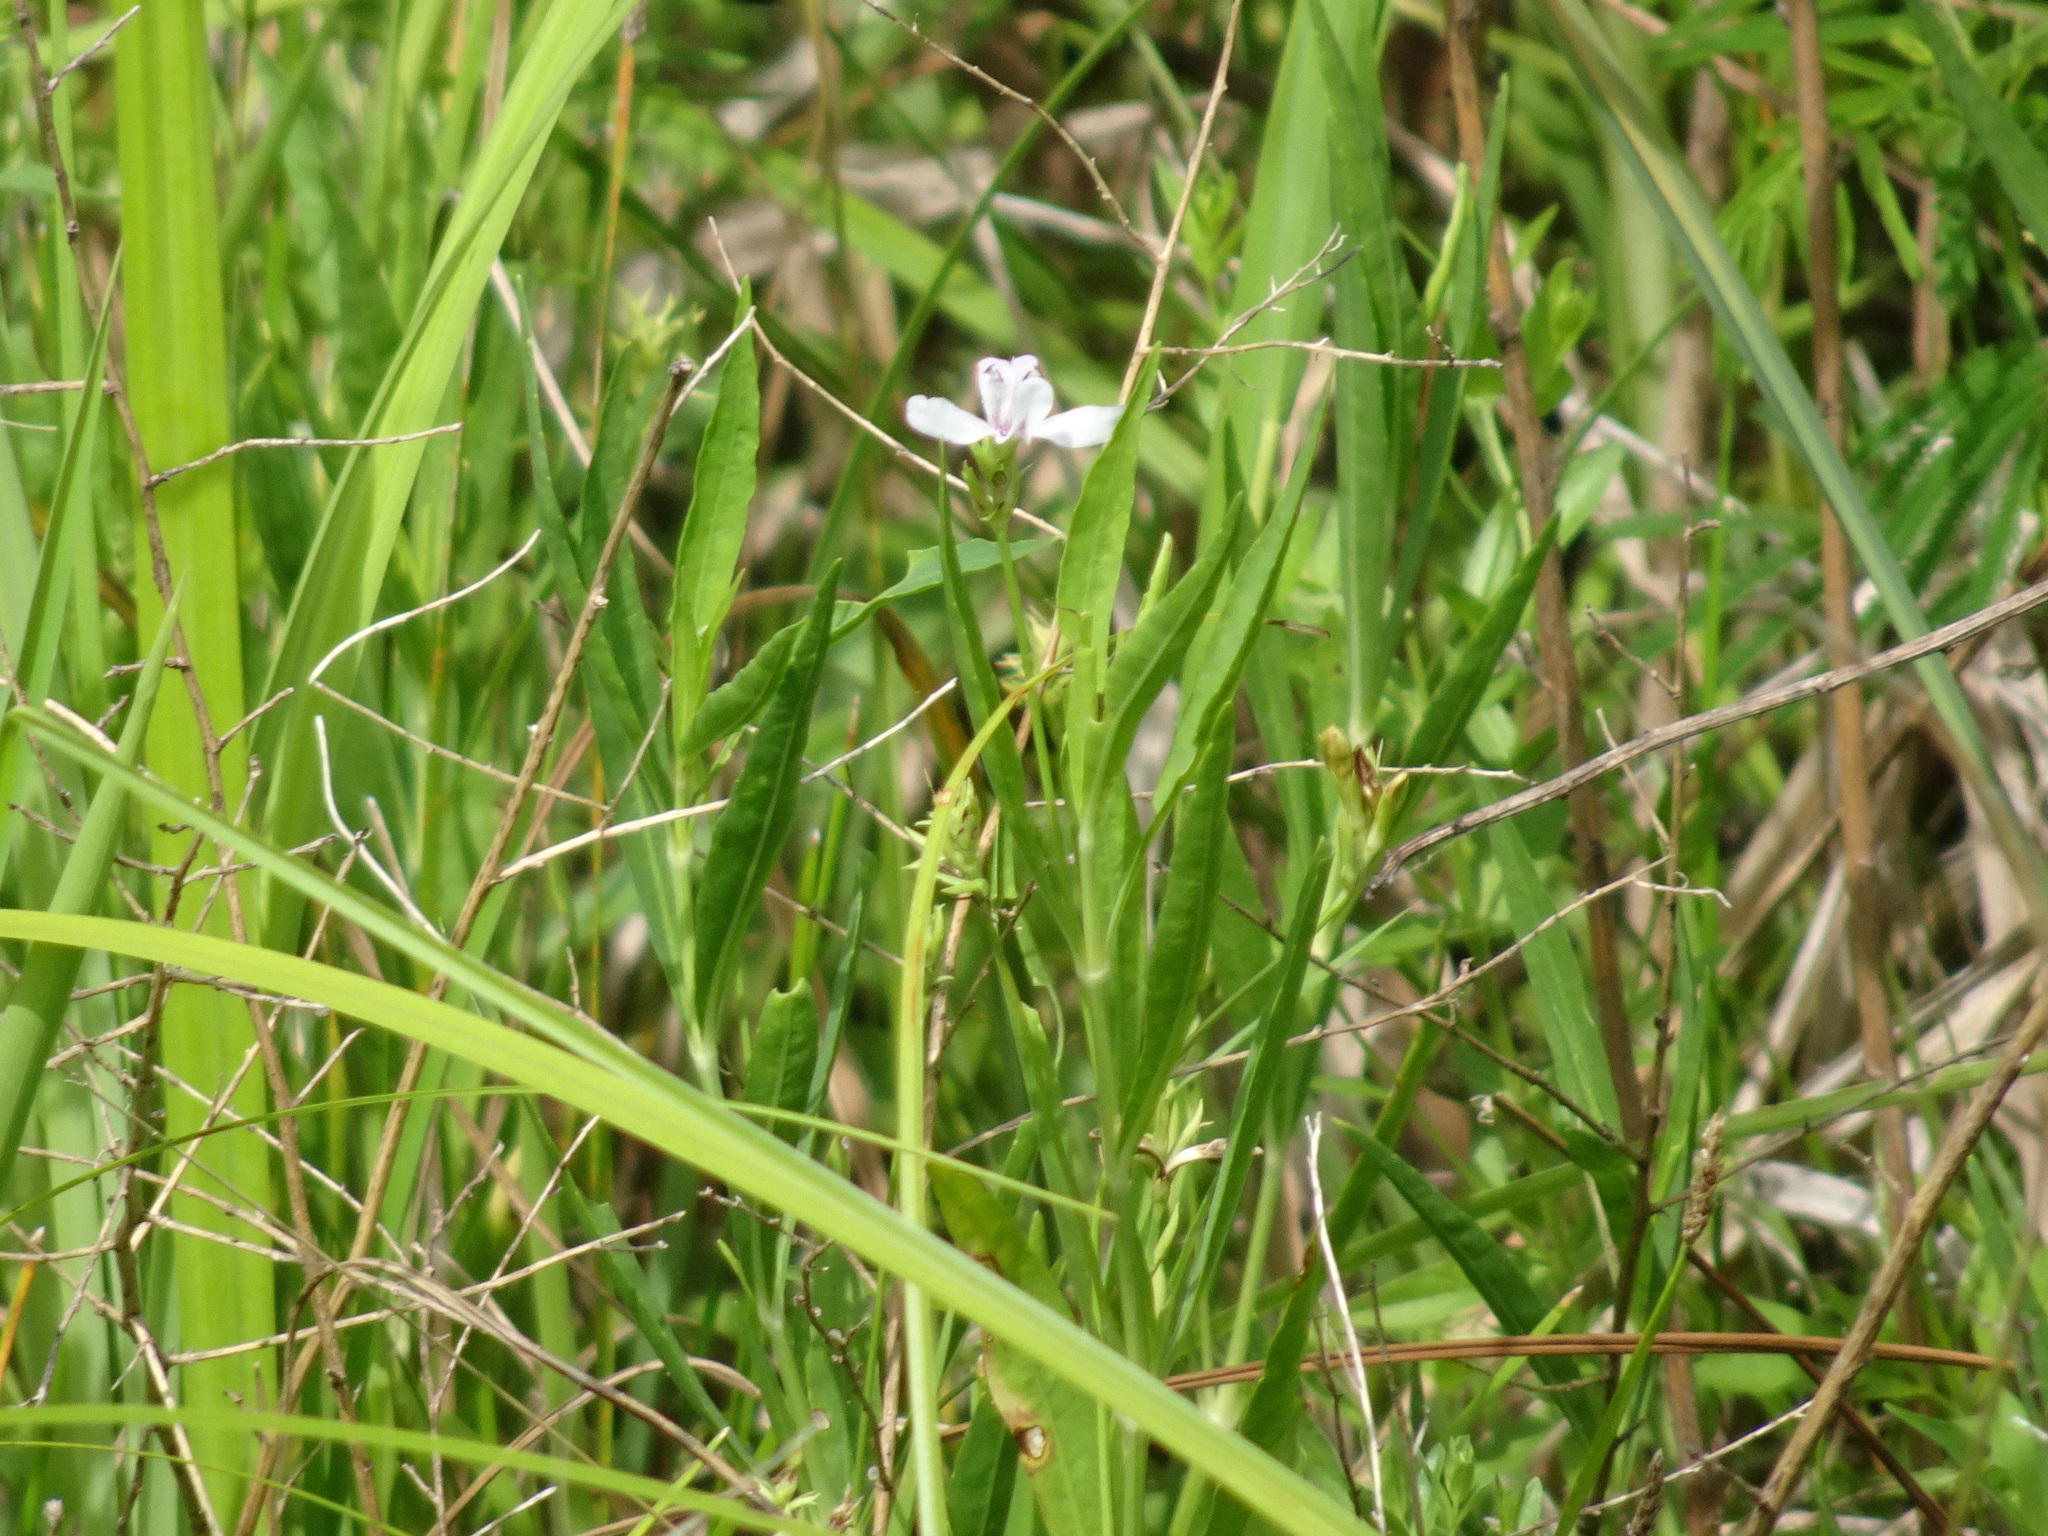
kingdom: Plantae
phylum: Tracheophyta
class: Magnoliopsida
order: Lamiales
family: Acanthaceae
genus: Dianthera
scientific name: Dianthera americana
